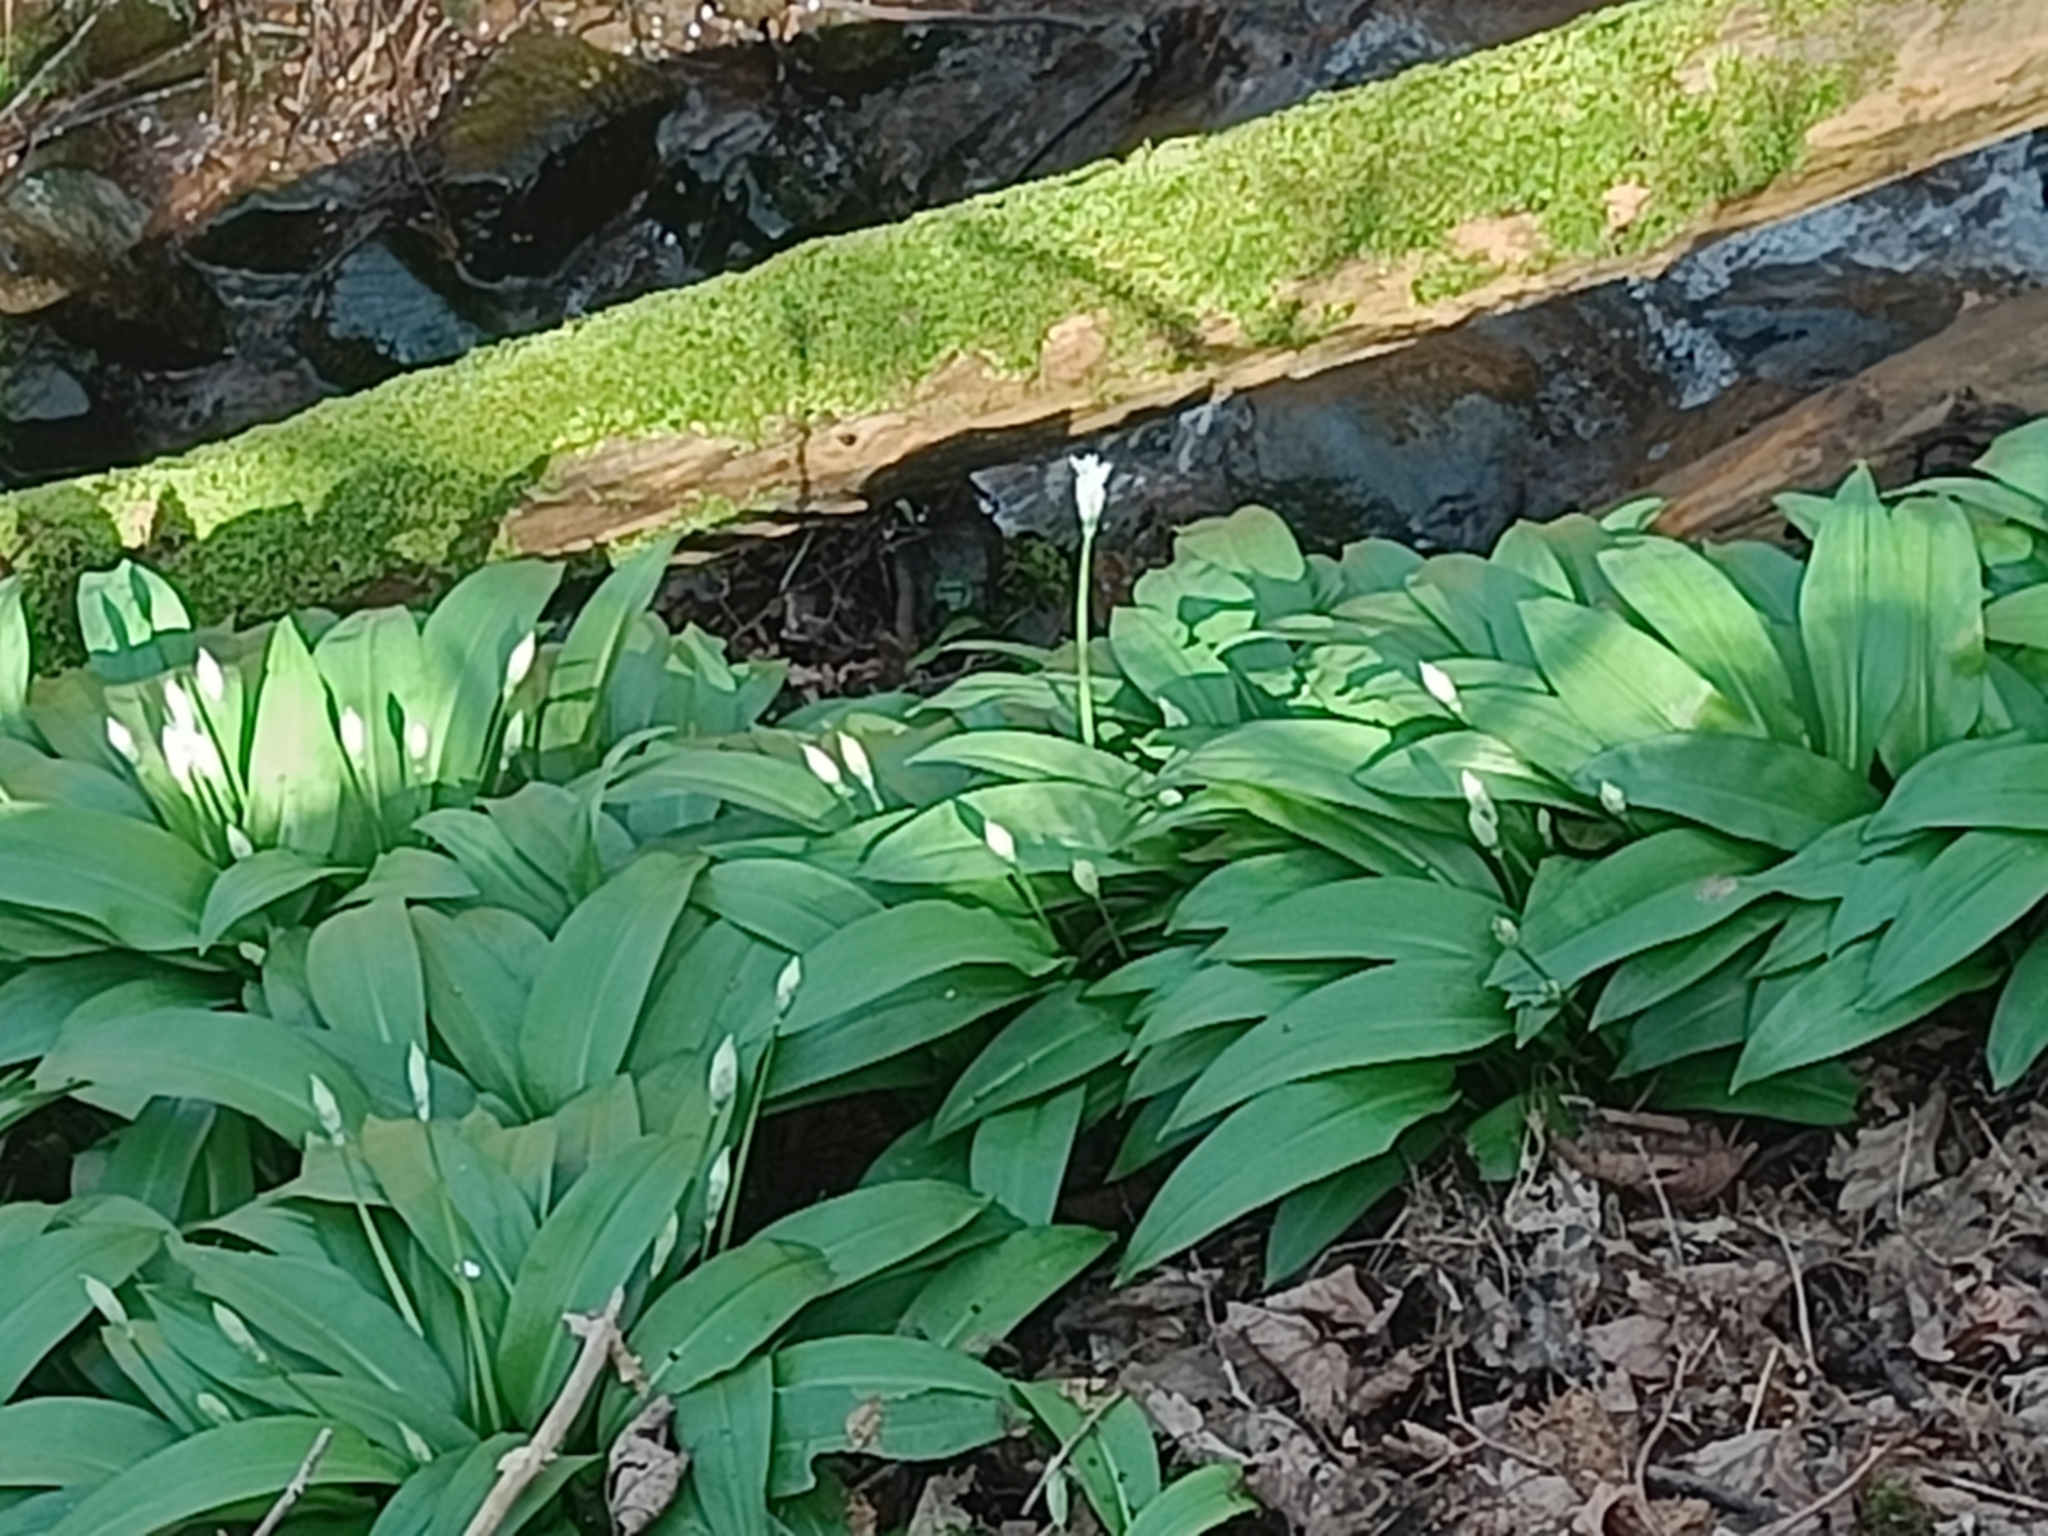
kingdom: Plantae
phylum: Tracheophyta
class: Liliopsida
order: Asparagales
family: Amaryllidaceae
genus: Allium
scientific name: Allium ursinum
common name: Ramsons
